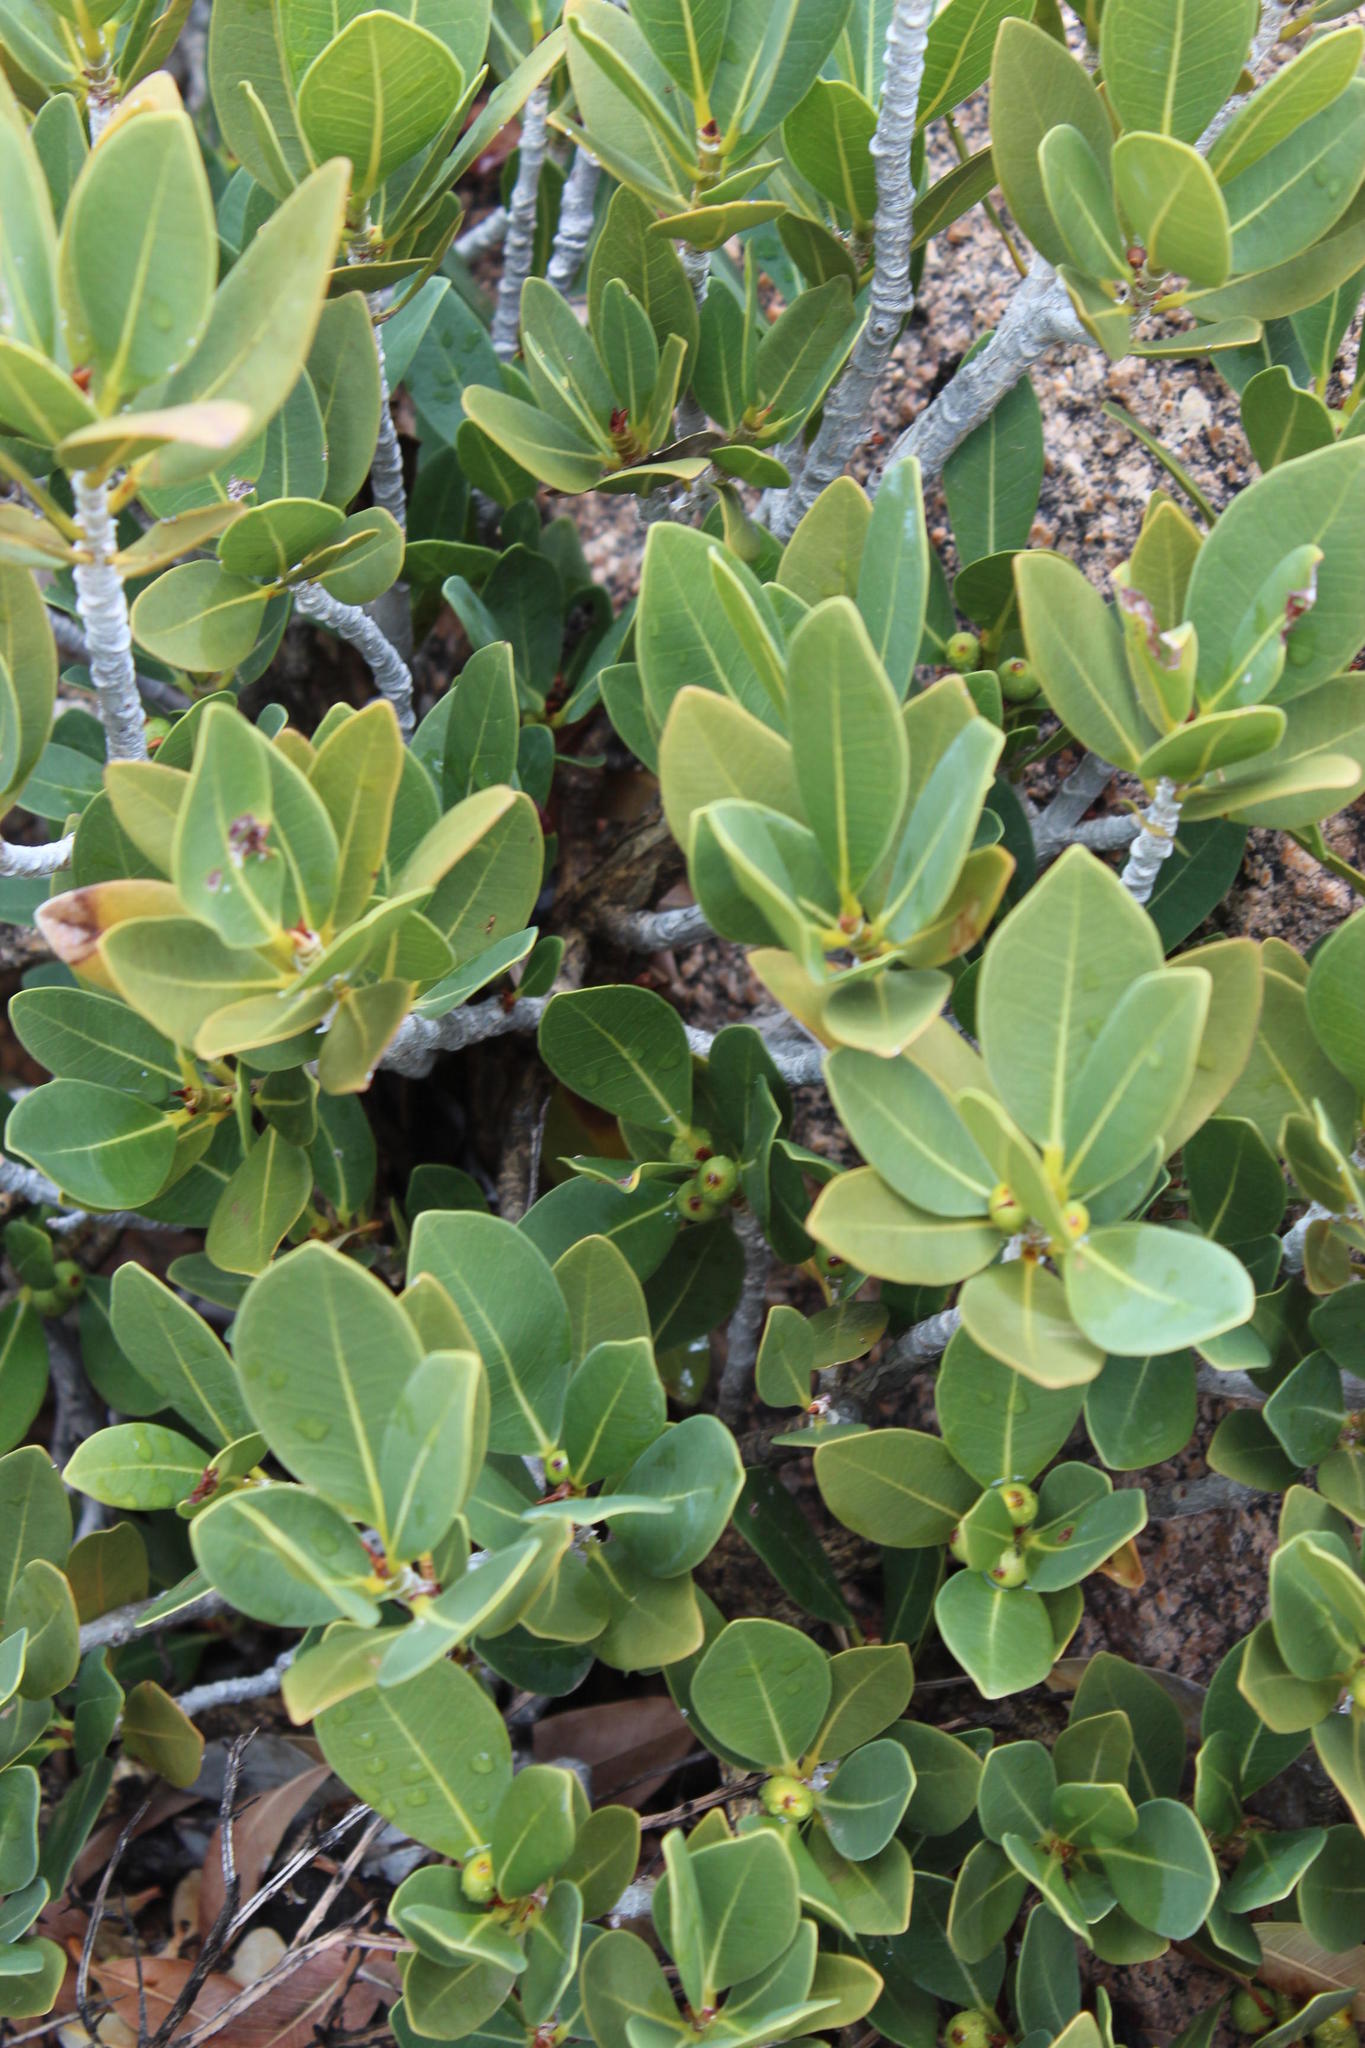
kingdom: Plantae
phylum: Tracheophyta
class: Magnoliopsida
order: Rosales
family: Moraceae
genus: Ficus
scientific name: Ficus ilicina
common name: Laurel rock fig
